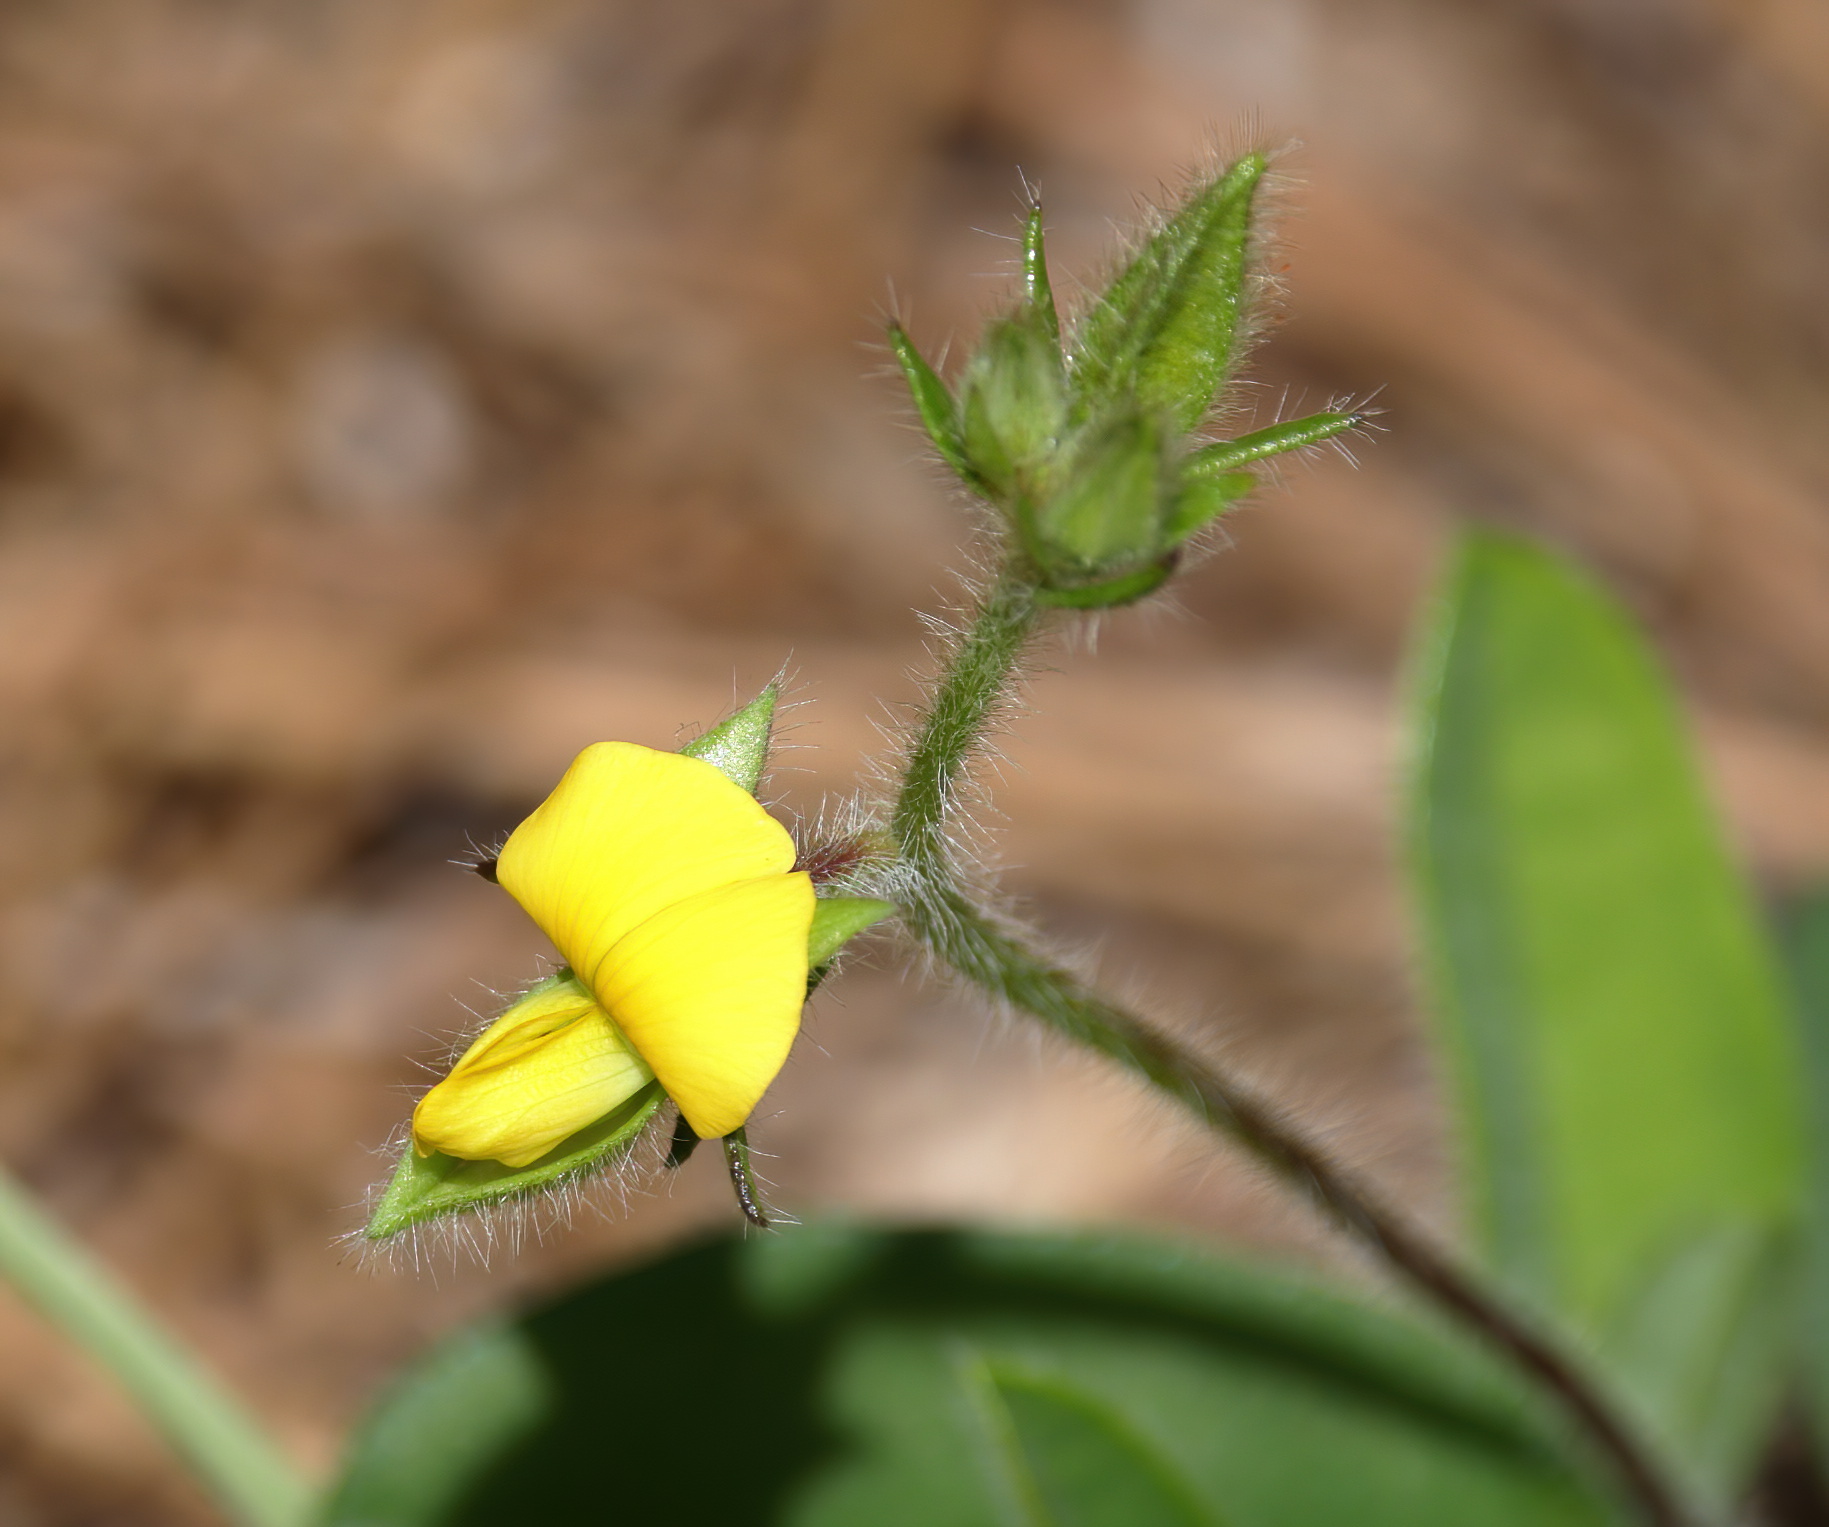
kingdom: Plantae
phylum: Tracheophyta
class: Magnoliopsida
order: Fabales
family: Fabaceae
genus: Crotalaria
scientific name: Crotalaria rotundifolia
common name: Prostrate rattlebox
